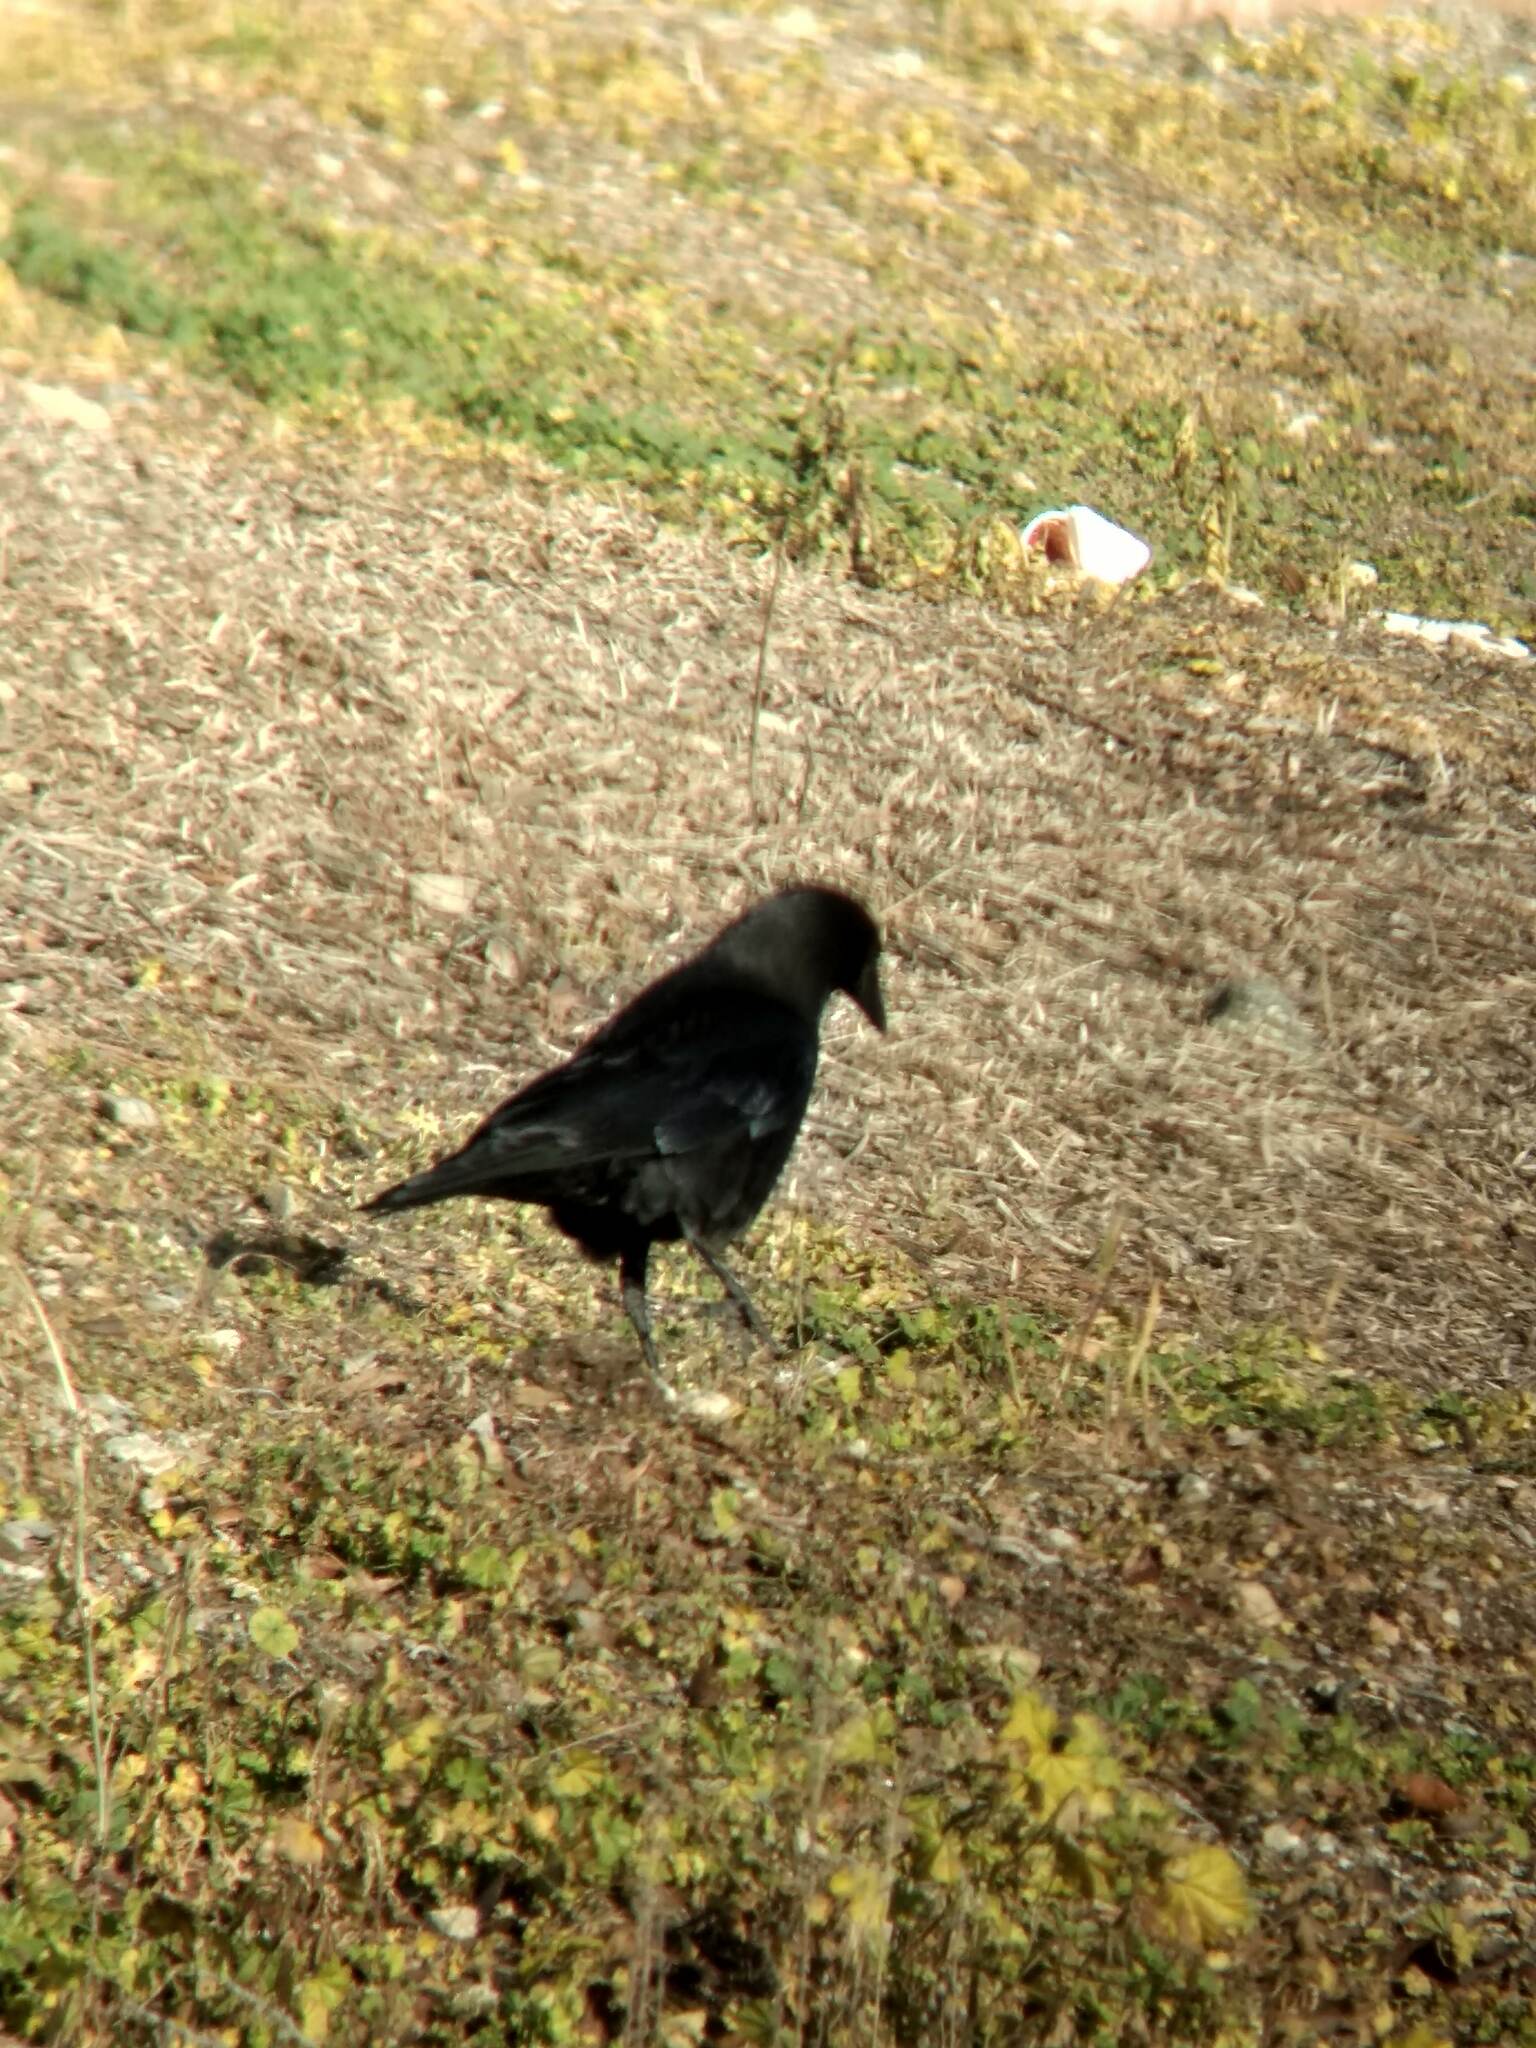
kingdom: Animalia
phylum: Chordata
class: Aves
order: Passeriformes
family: Corvidae
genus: Corvus
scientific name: Corvus brachyrhynchos
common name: American crow
